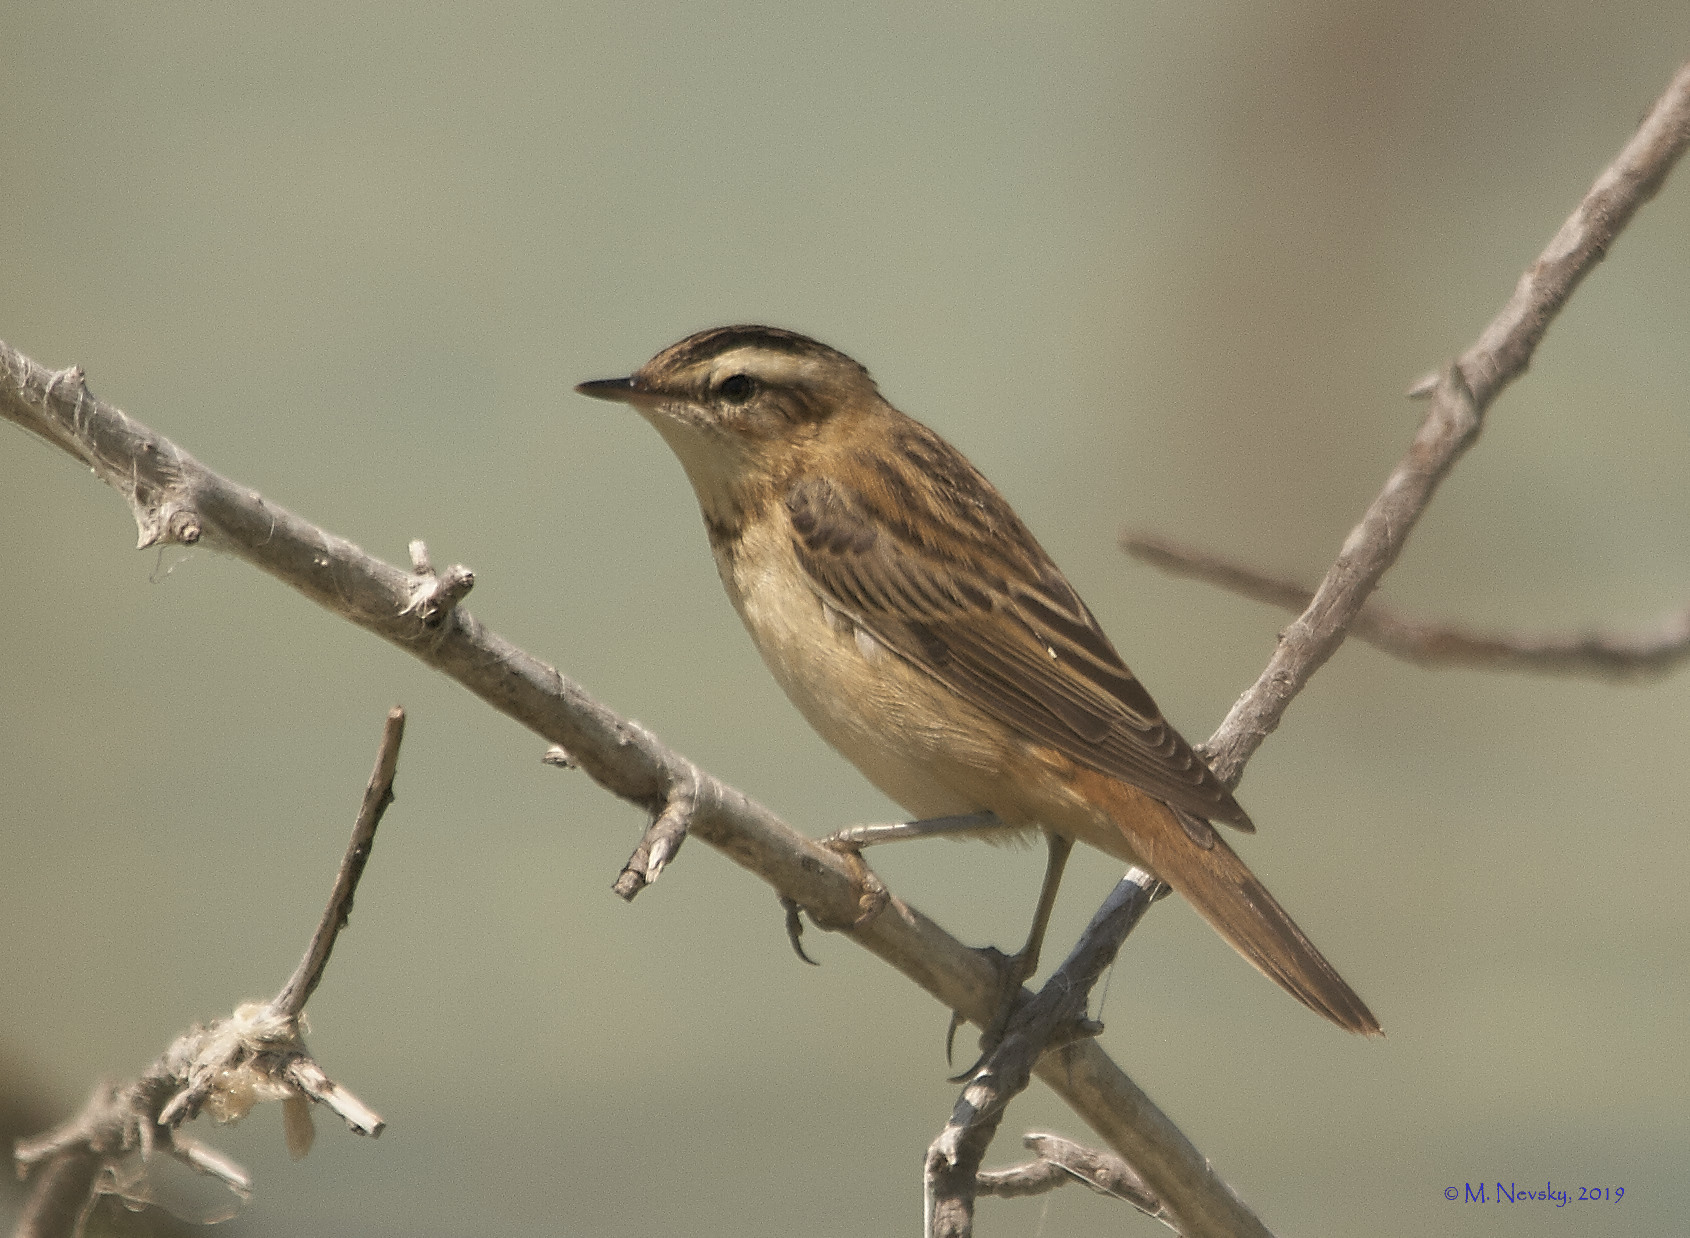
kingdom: Animalia
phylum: Chordata
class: Aves
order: Passeriformes
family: Acrocephalidae
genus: Acrocephalus
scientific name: Acrocephalus schoenobaenus
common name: Sedge warbler
